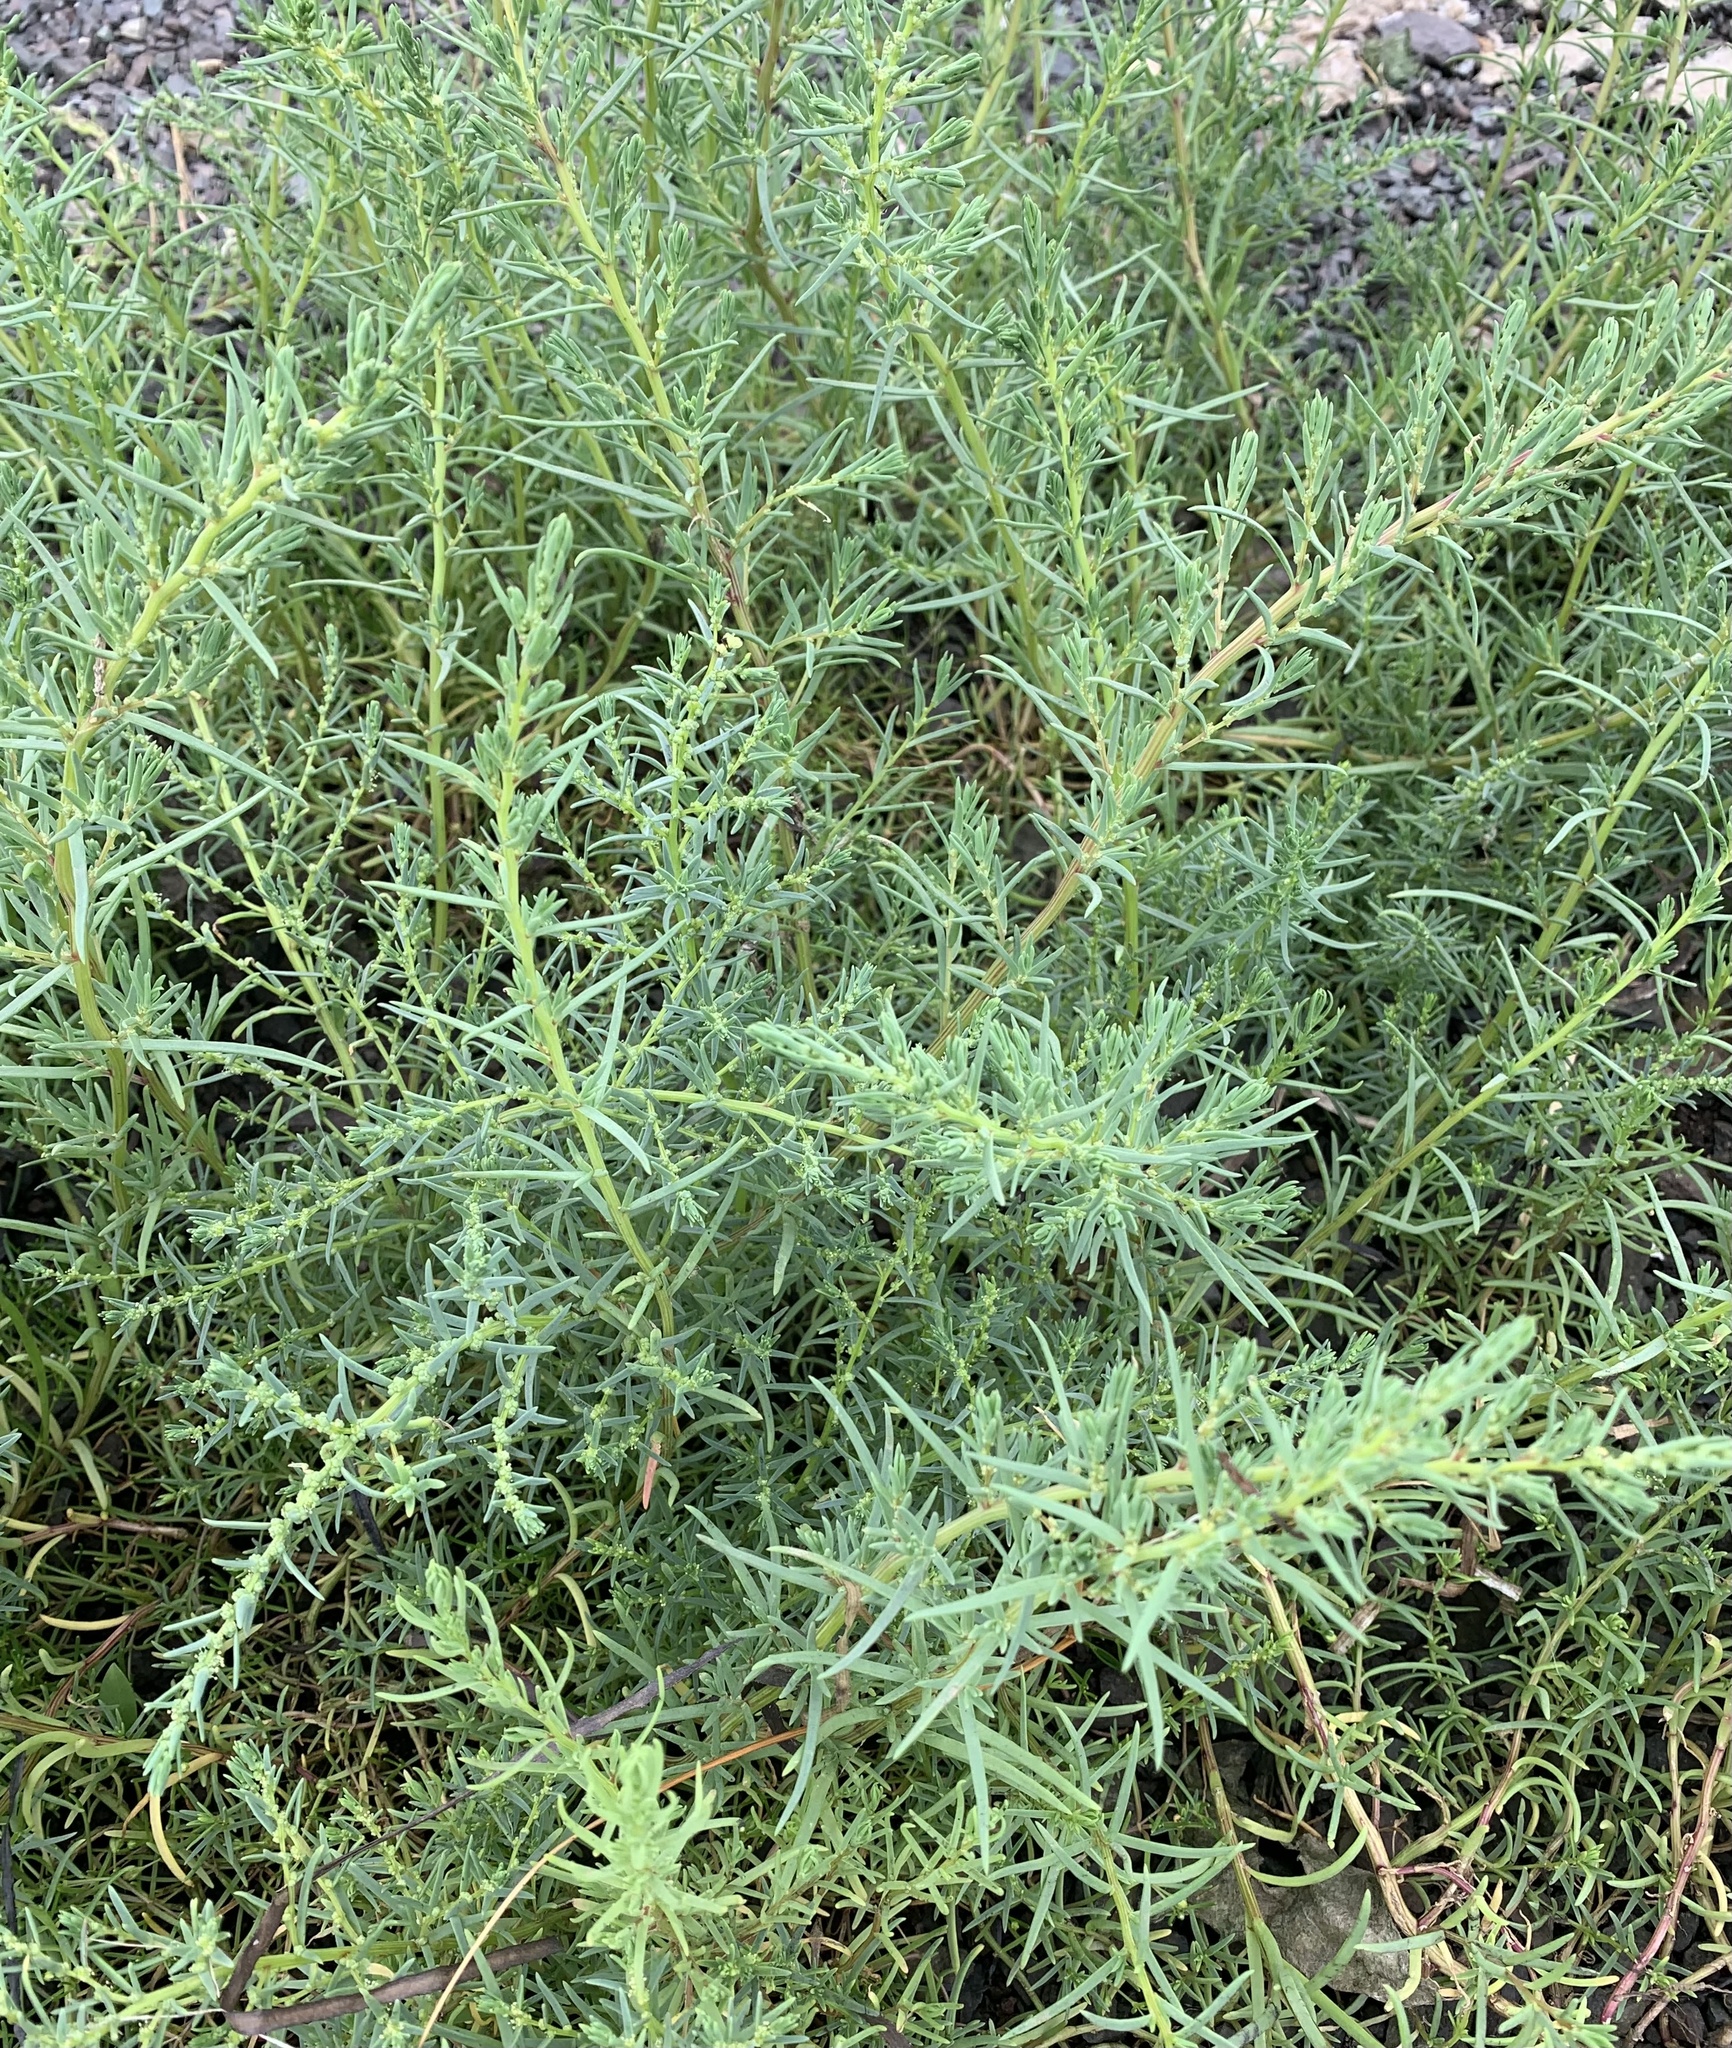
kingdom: Plantae
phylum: Tracheophyta
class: Magnoliopsida
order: Caryophyllales
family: Amaranthaceae
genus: Suaeda
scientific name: Suaeda maritima
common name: Annual sea-blite
